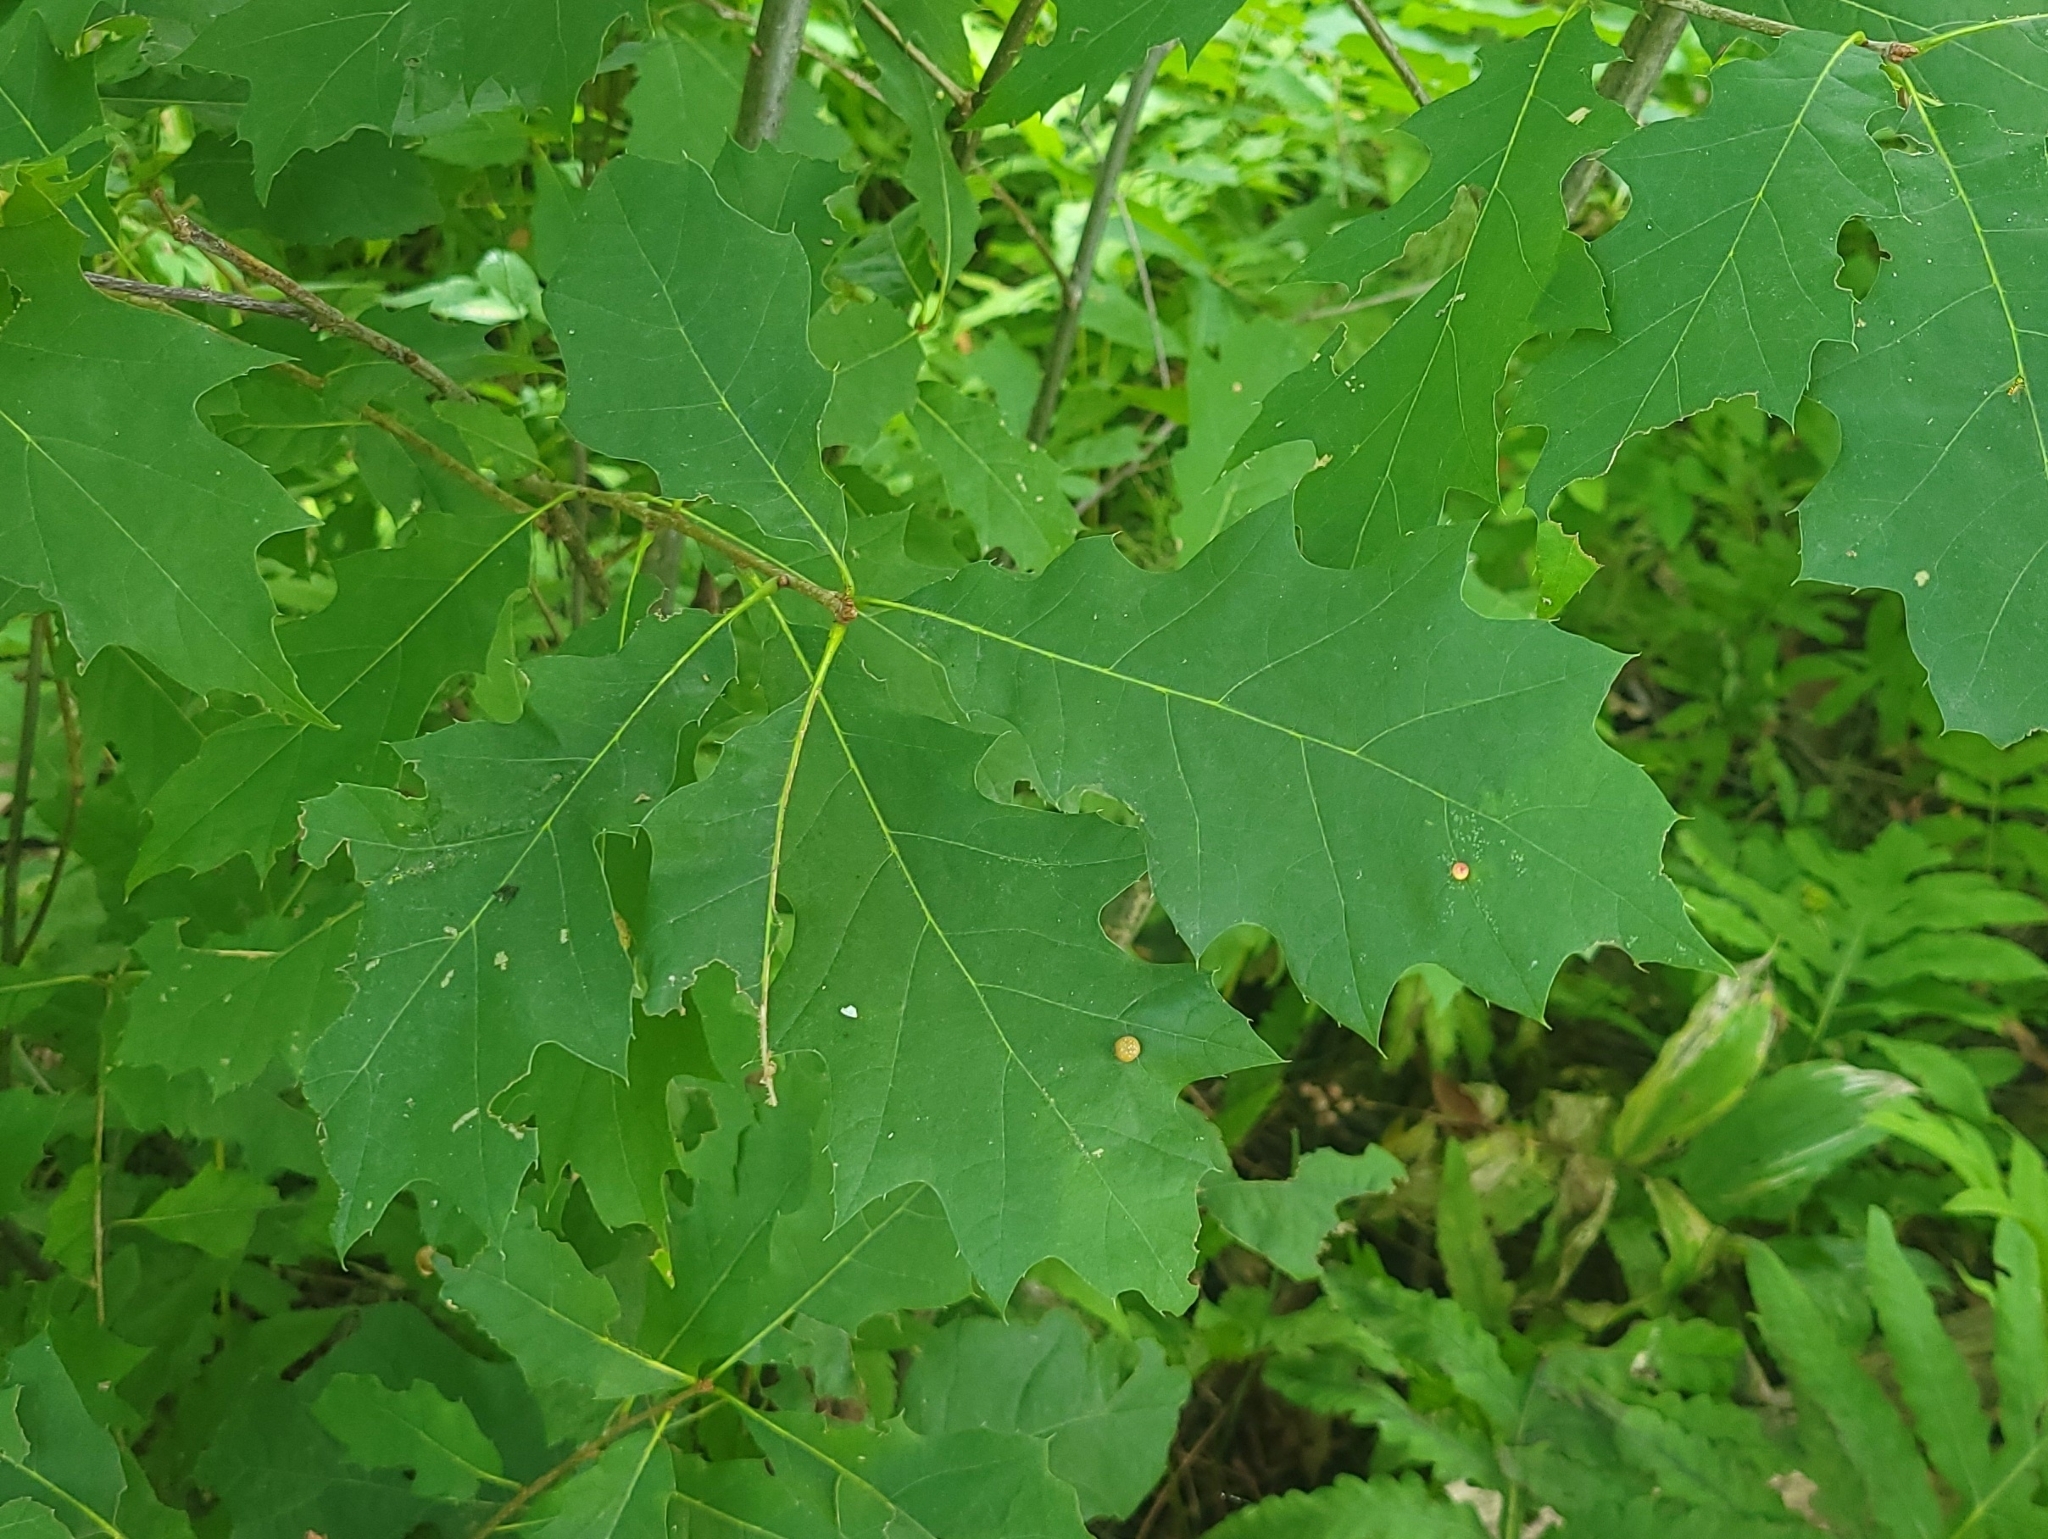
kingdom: Plantae
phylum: Tracheophyta
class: Magnoliopsida
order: Fagales
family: Fagaceae
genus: Quercus
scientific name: Quercus rubra
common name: Red oak
